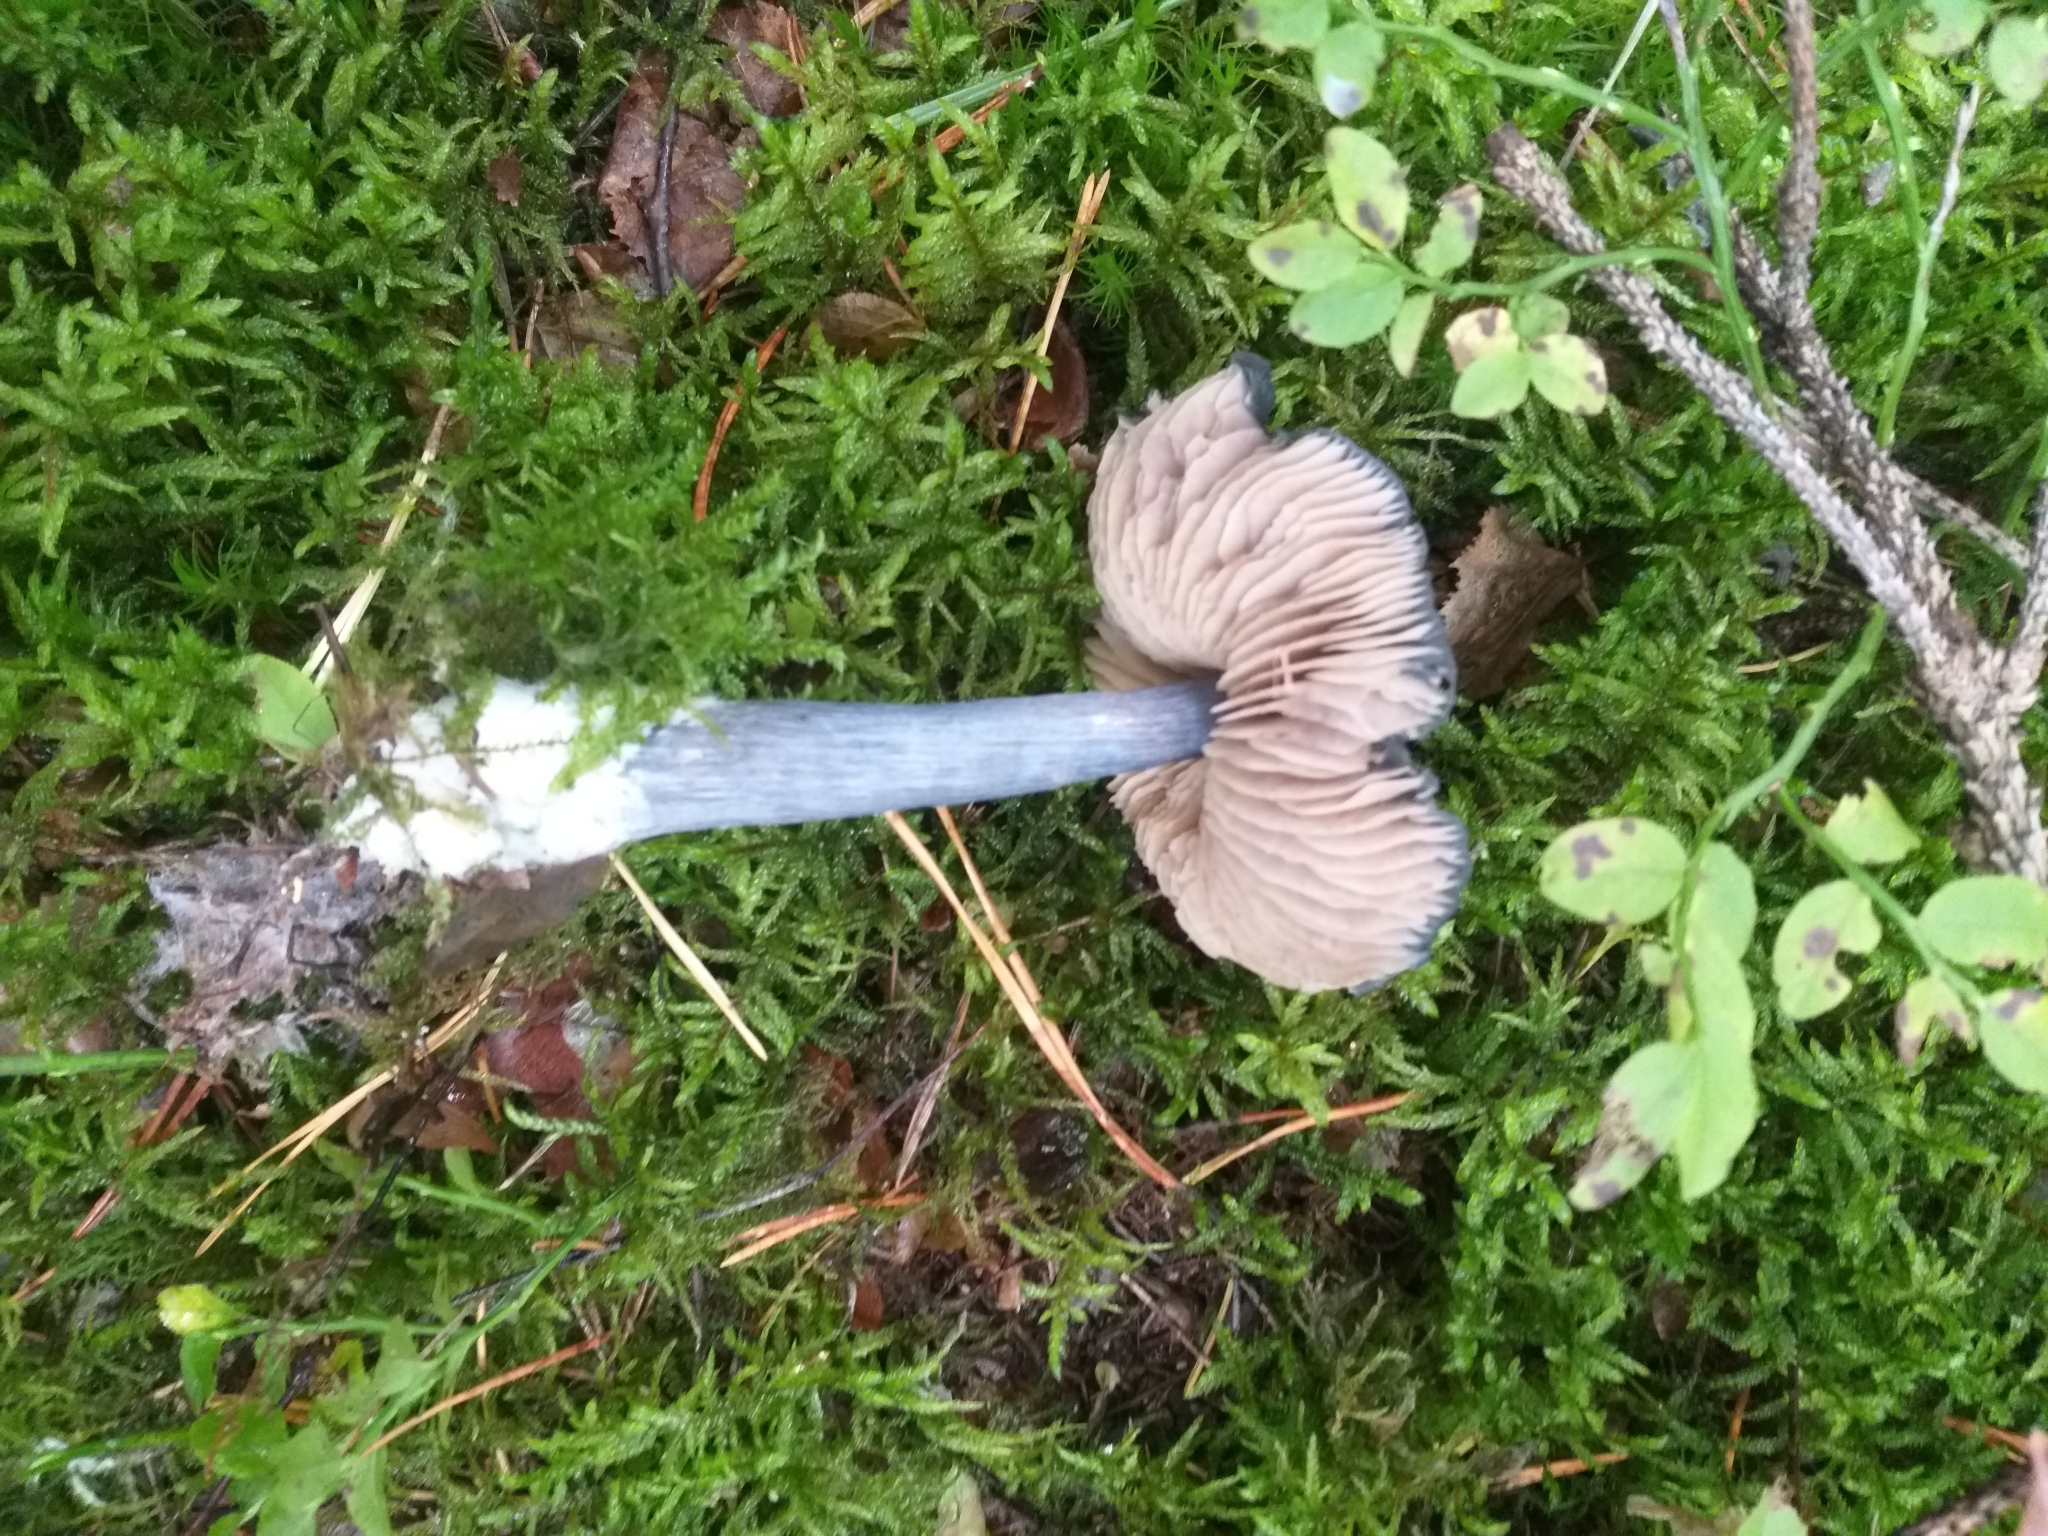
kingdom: Fungi
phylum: Basidiomycota
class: Agaricomycetes
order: Agaricales
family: Entolomataceae
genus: Entocybe
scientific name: Entocybe nitida
